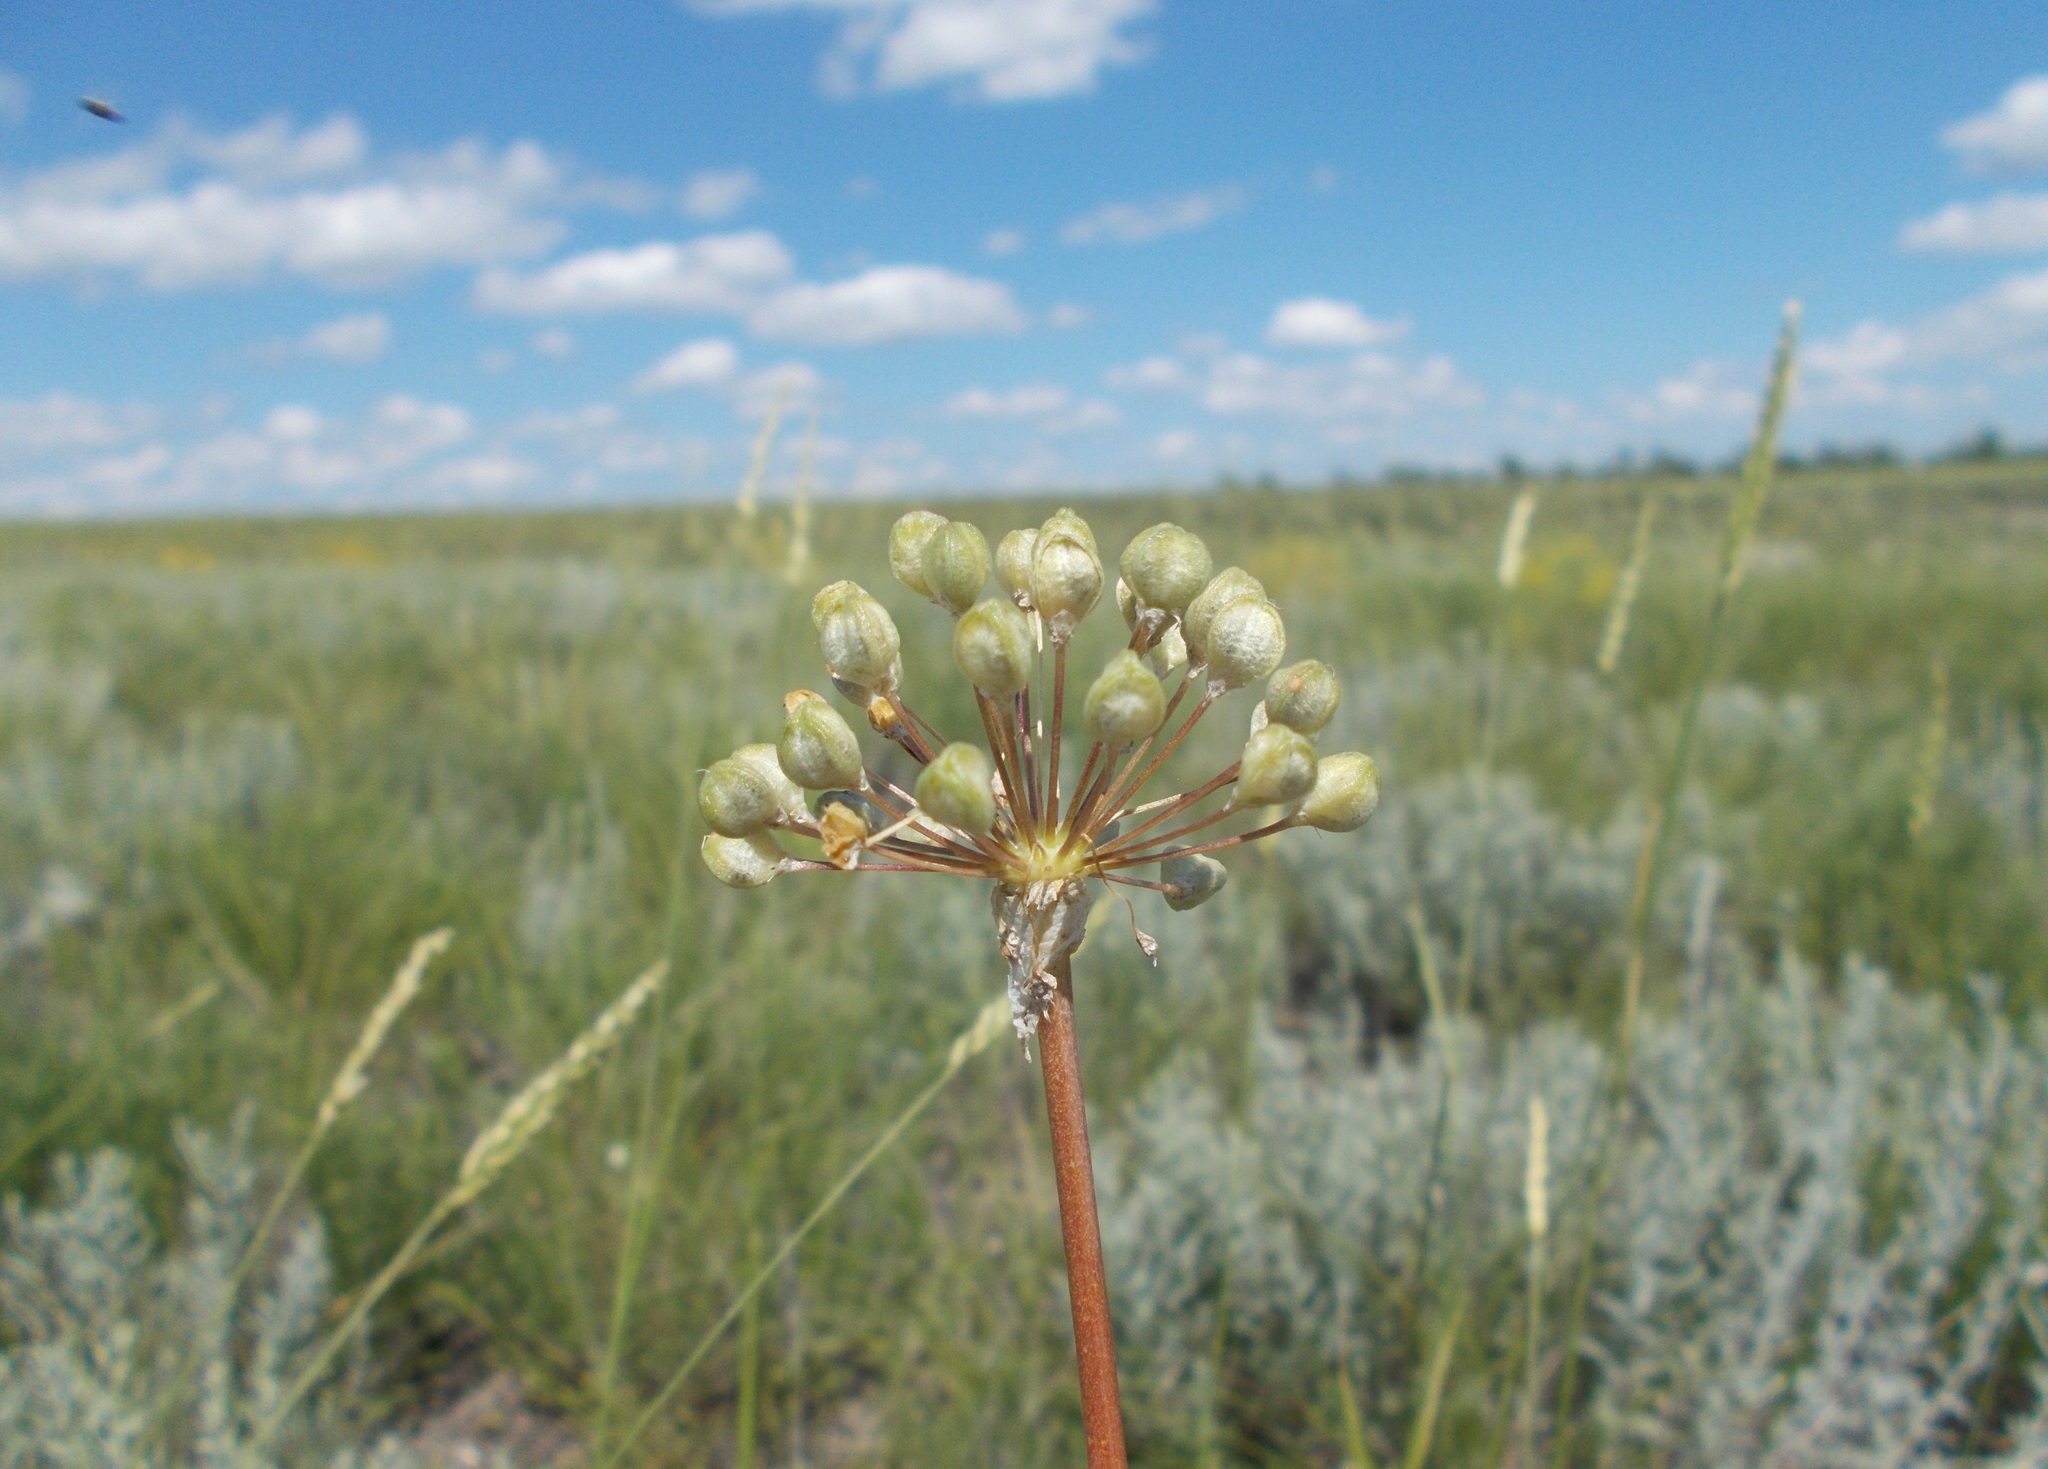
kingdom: Plantae
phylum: Tracheophyta
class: Liliopsida
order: Asparagales
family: Amaryllidaceae
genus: Allium
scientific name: Allium tulipifolium
